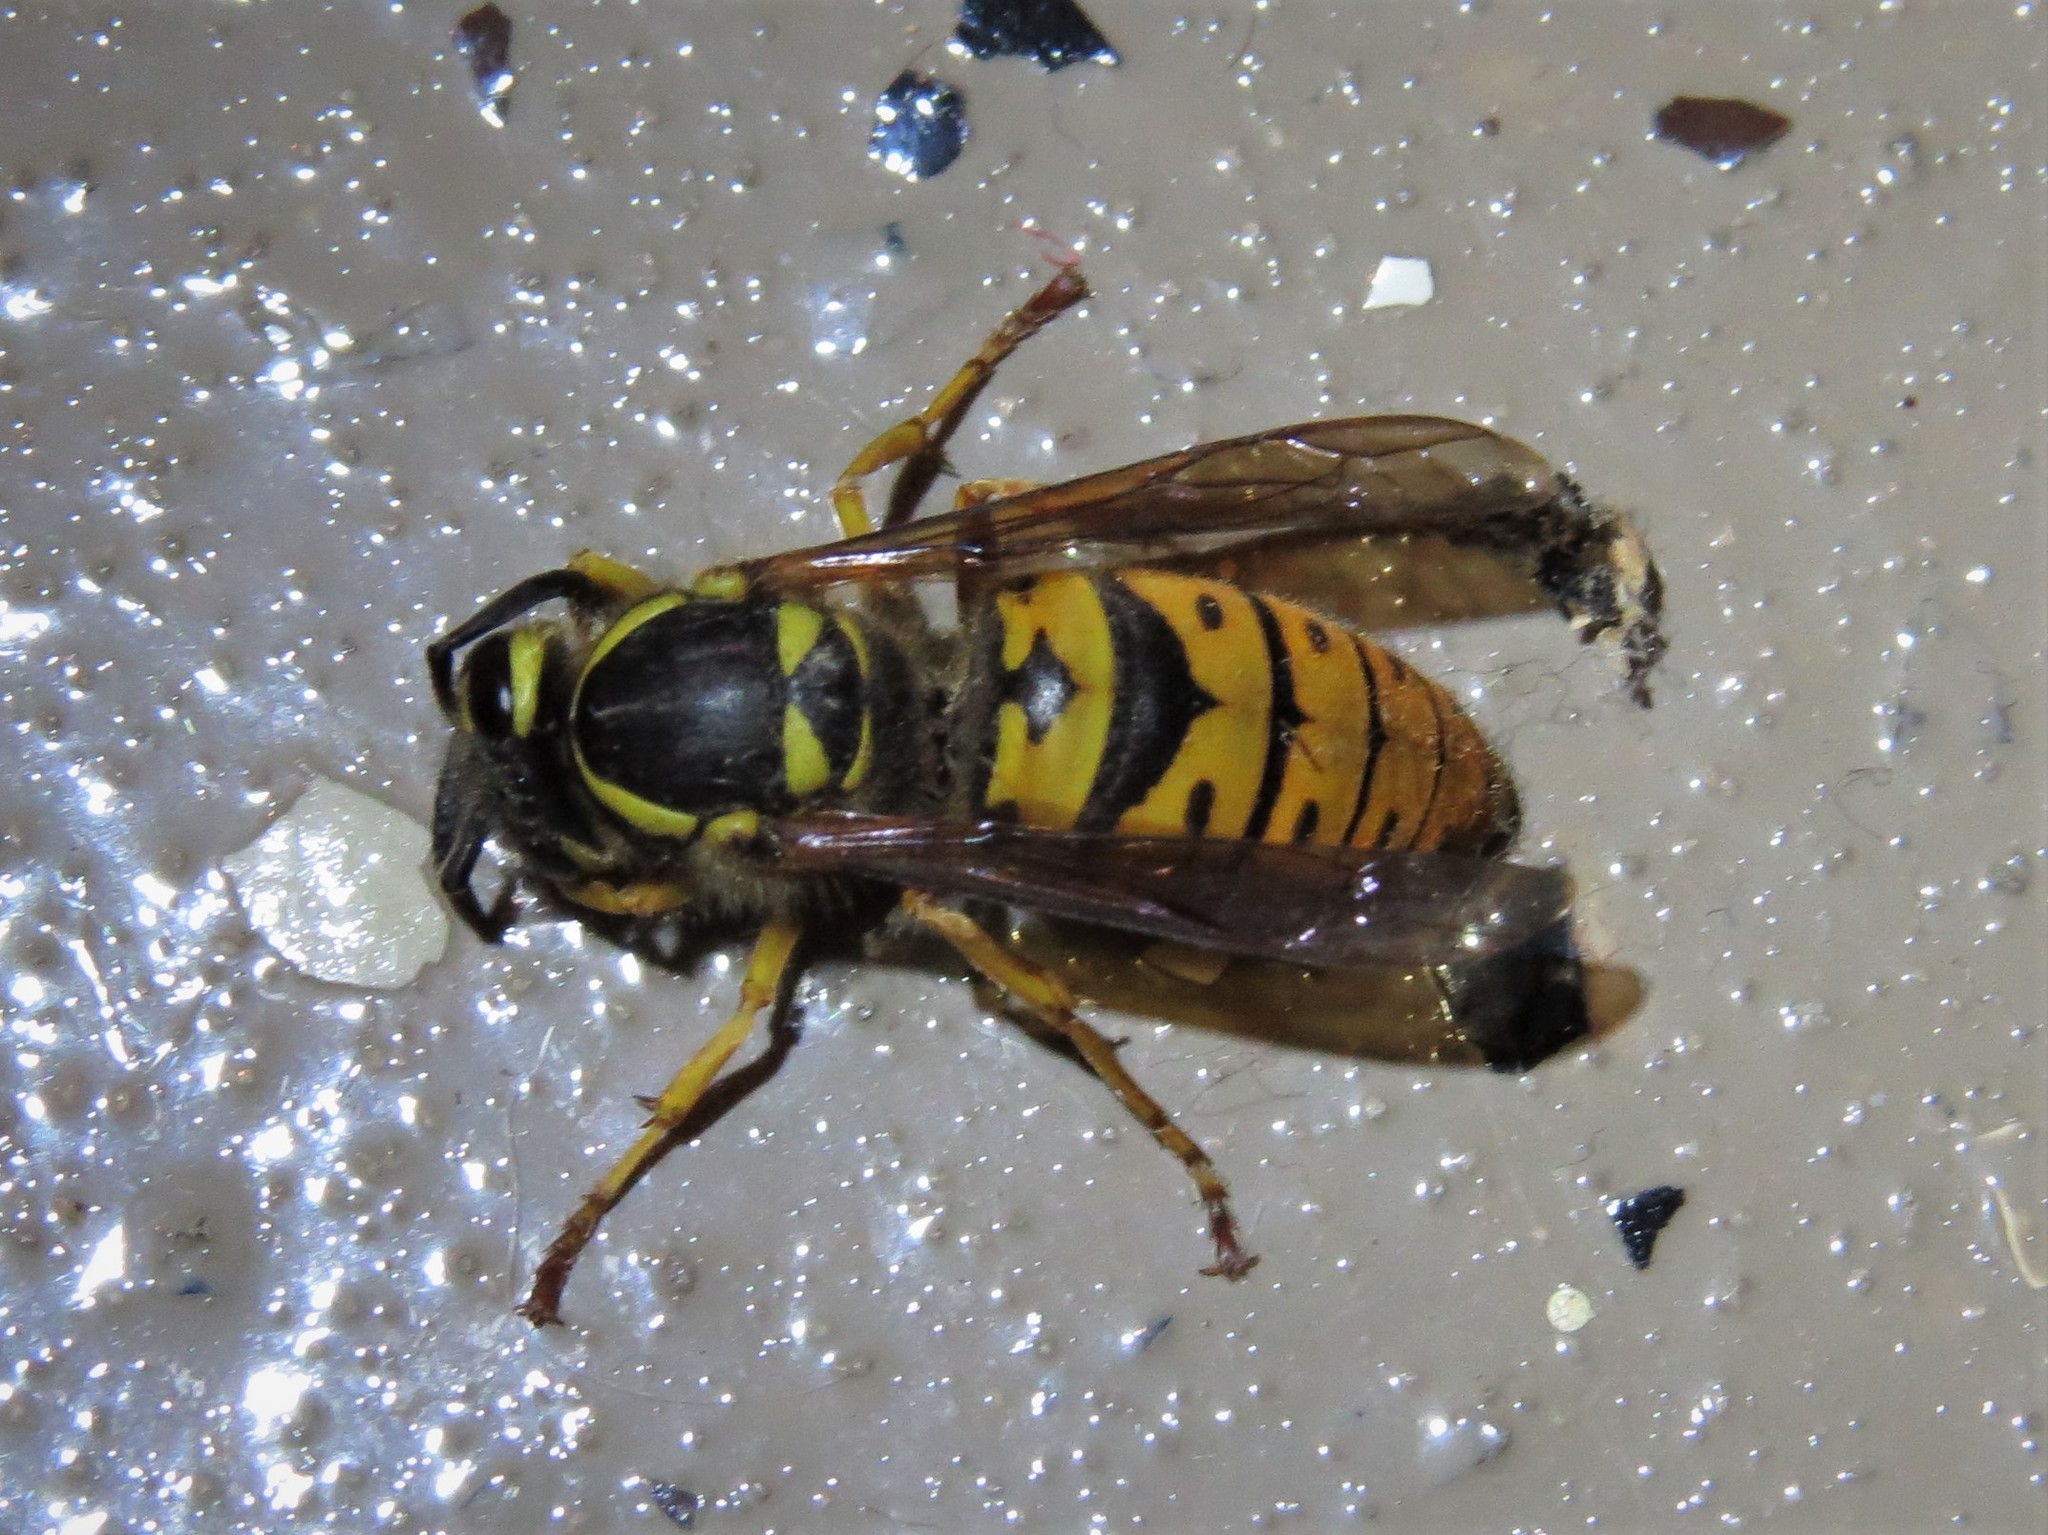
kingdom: Animalia
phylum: Arthropoda
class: Insecta
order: Hymenoptera
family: Vespidae
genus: Vespula
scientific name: Vespula maculifrons
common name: Eastern yellowjacket
